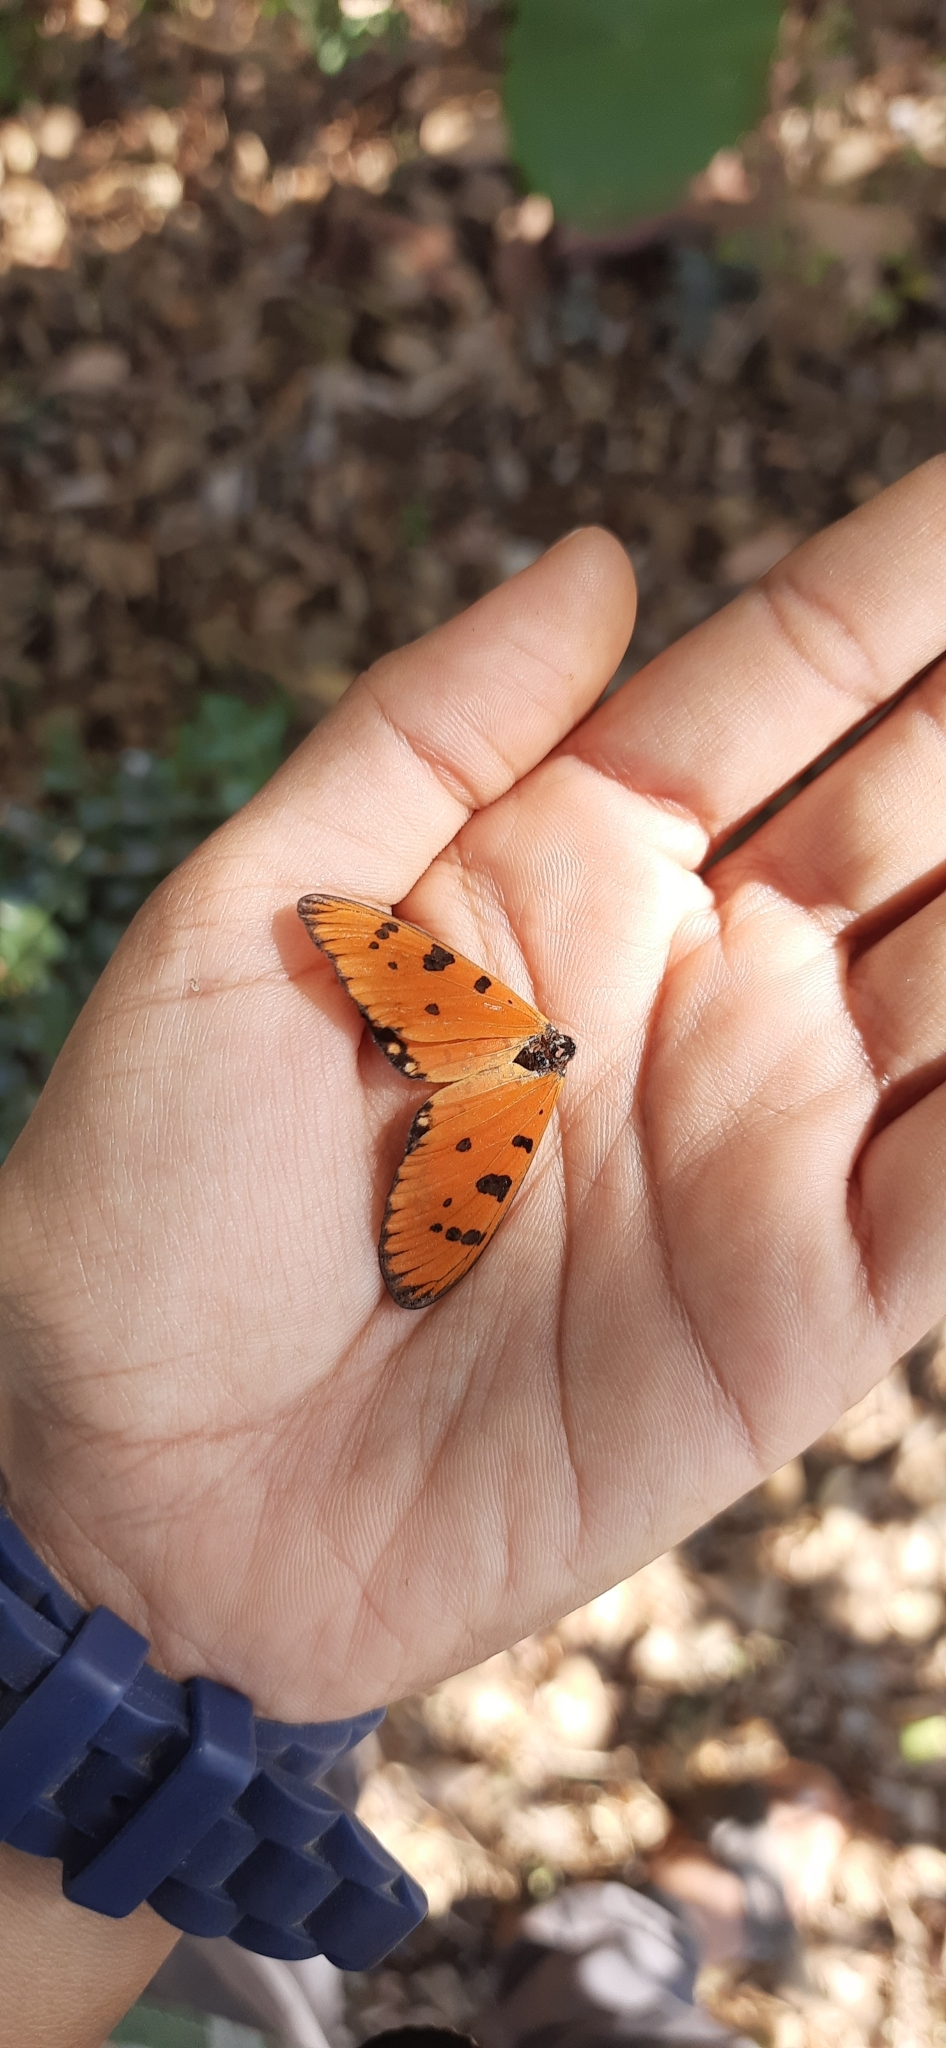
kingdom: Animalia
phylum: Arthropoda
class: Insecta
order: Lepidoptera
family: Nymphalidae
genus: Acraea
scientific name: Acraea terpsicore
